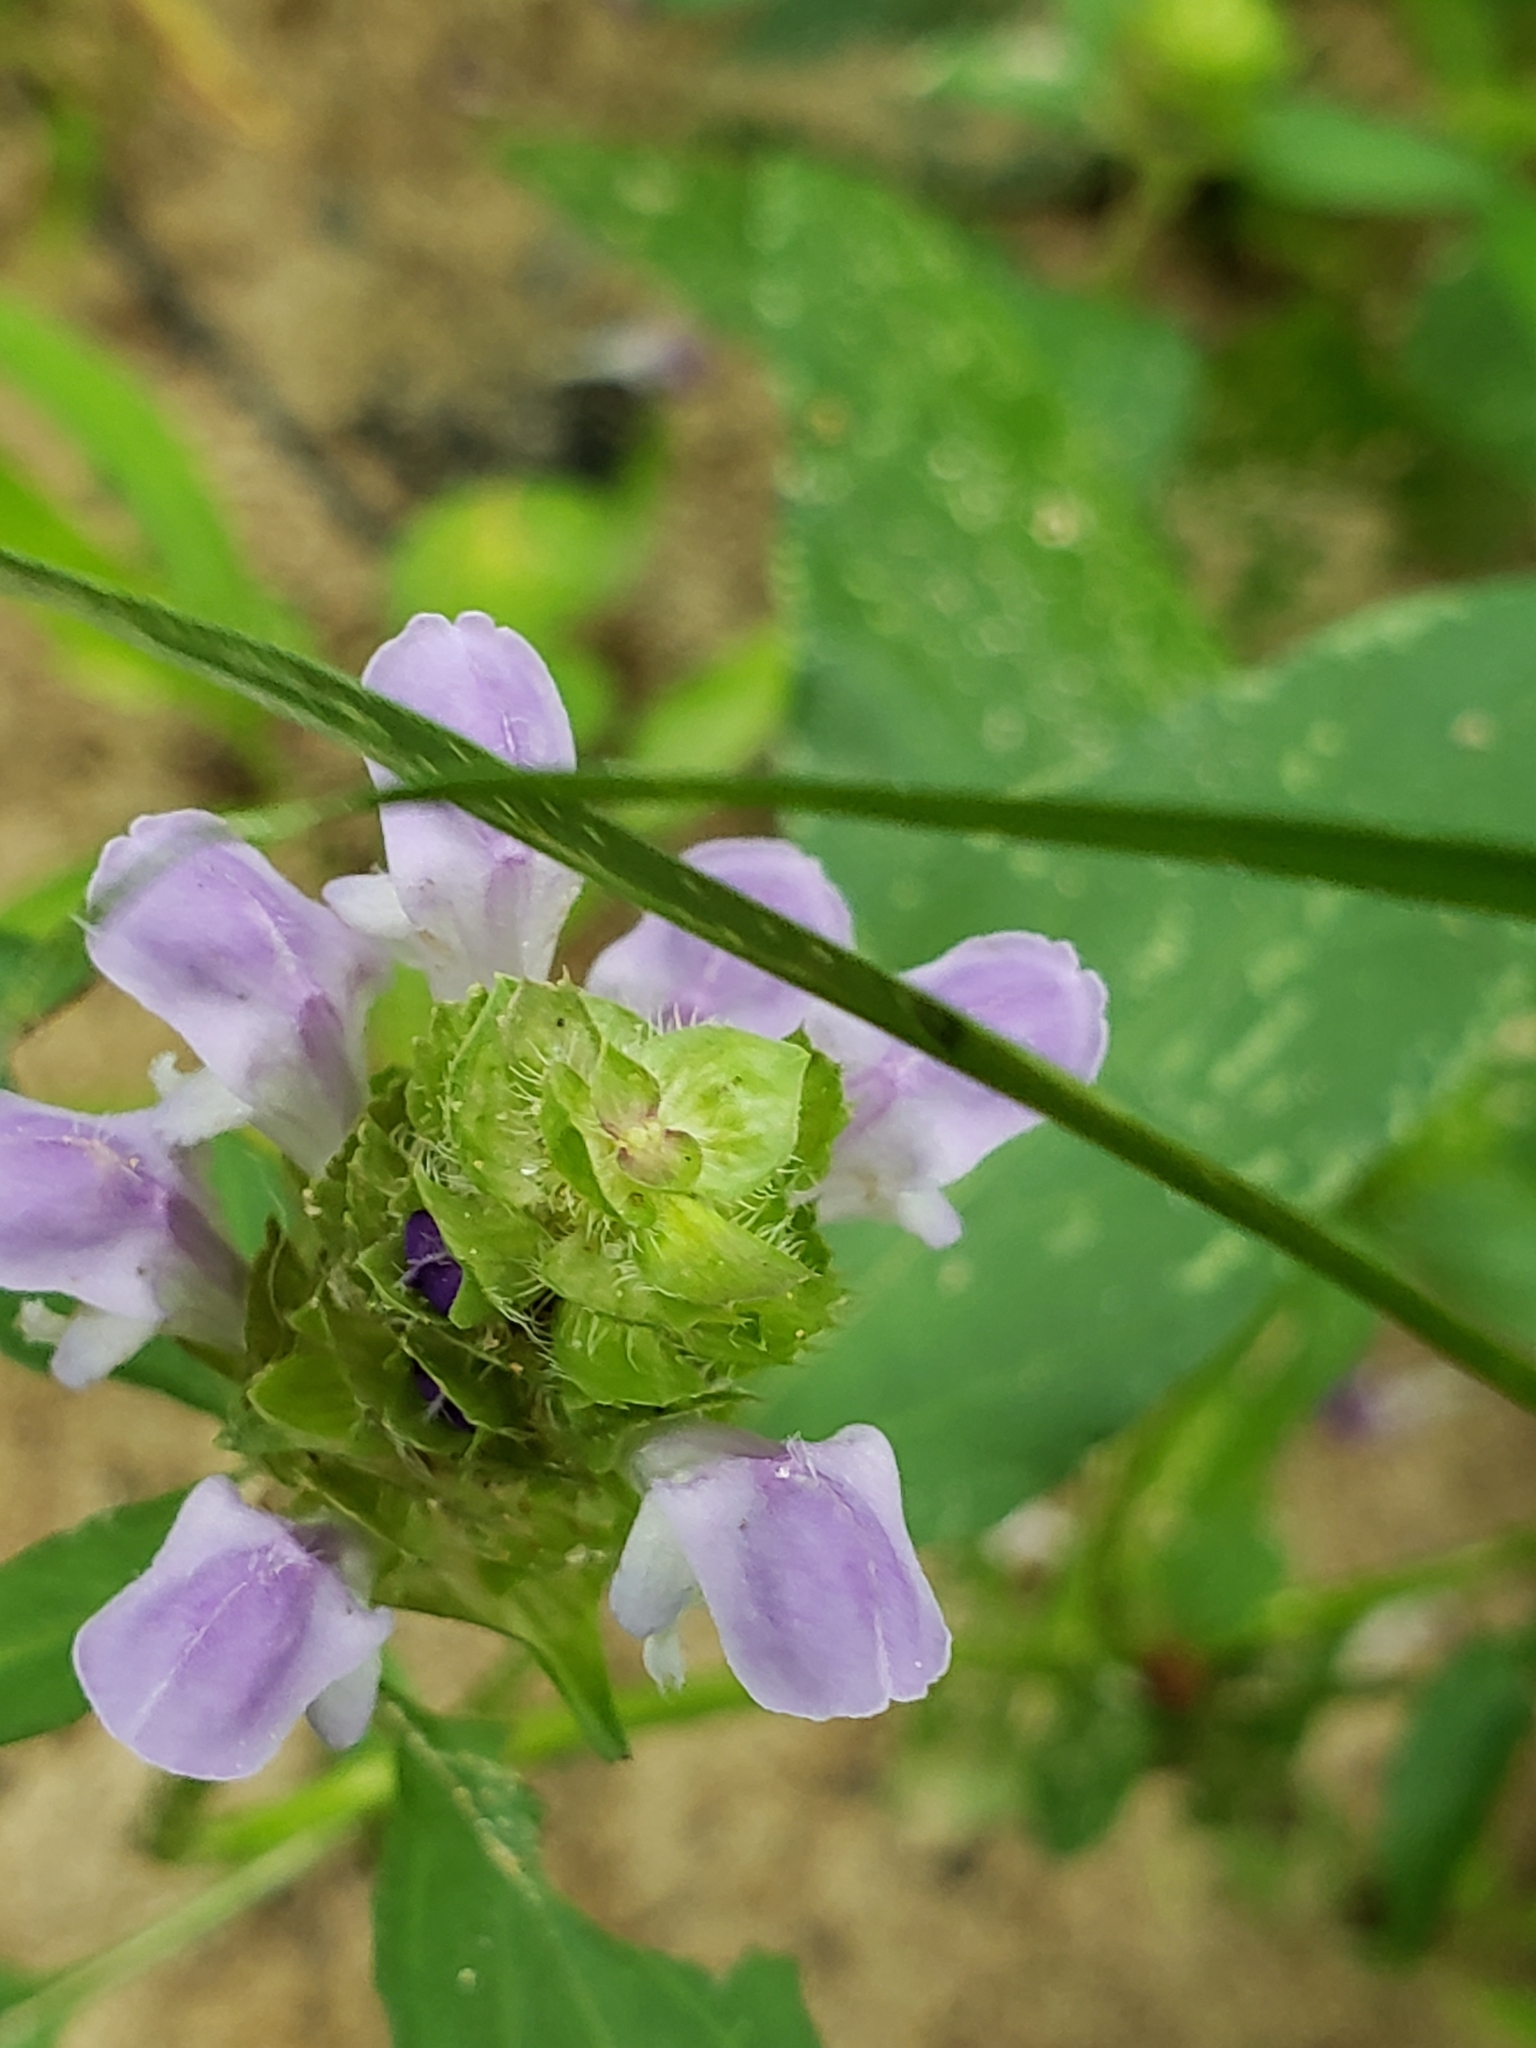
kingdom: Plantae
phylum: Tracheophyta
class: Magnoliopsida
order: Lamiales
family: Lamiaceae
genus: Prunella
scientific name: Prunella vulgaris
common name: Heal-all
